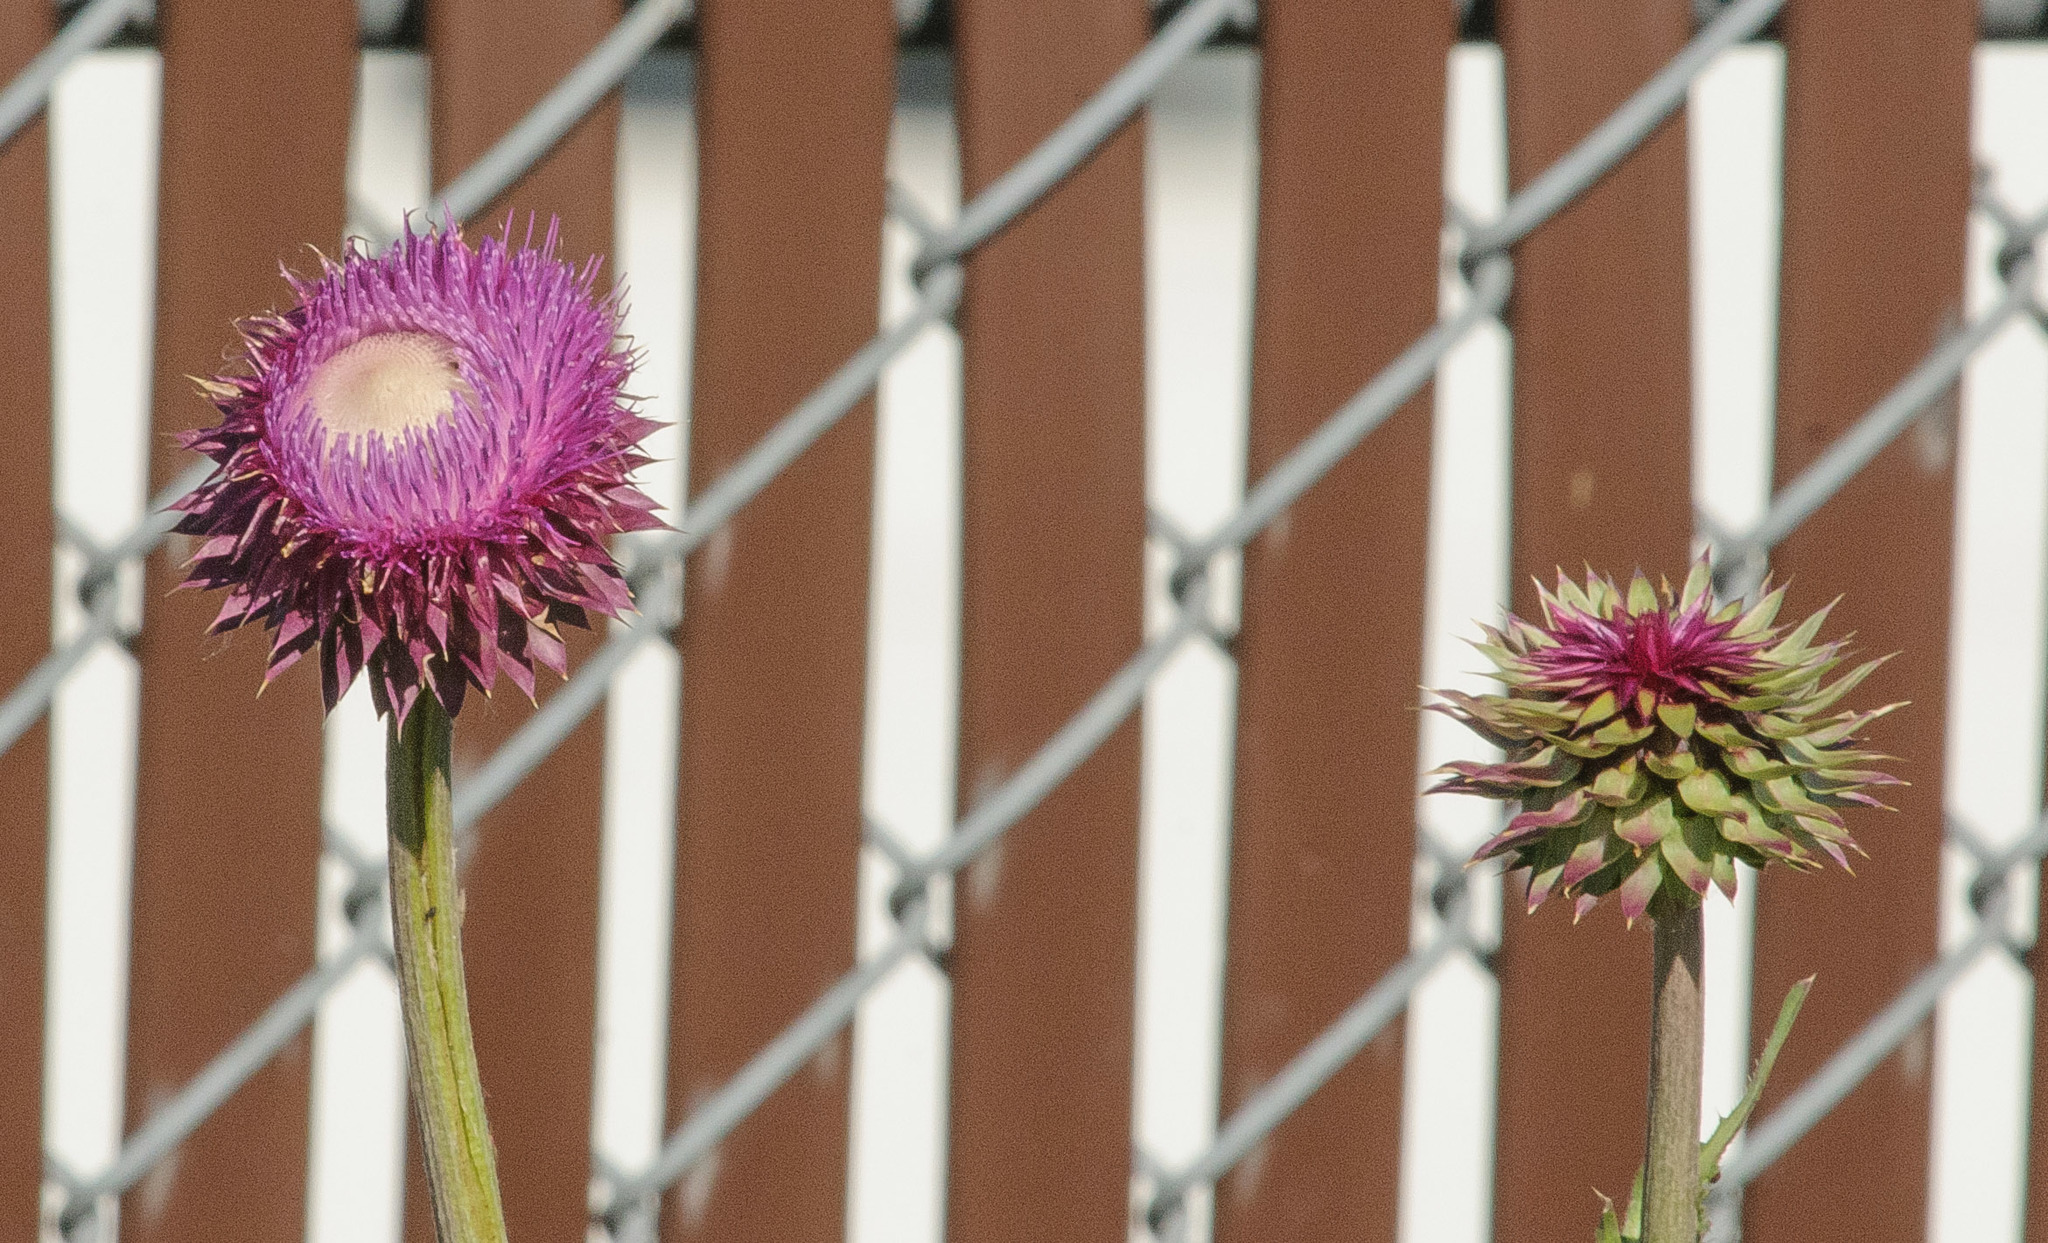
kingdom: Plantae
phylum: Tracheophyta
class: Magnoliopsida
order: Asterales
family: Asteraceae
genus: Carduus
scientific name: Carduus nutans
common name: Musk thistle
